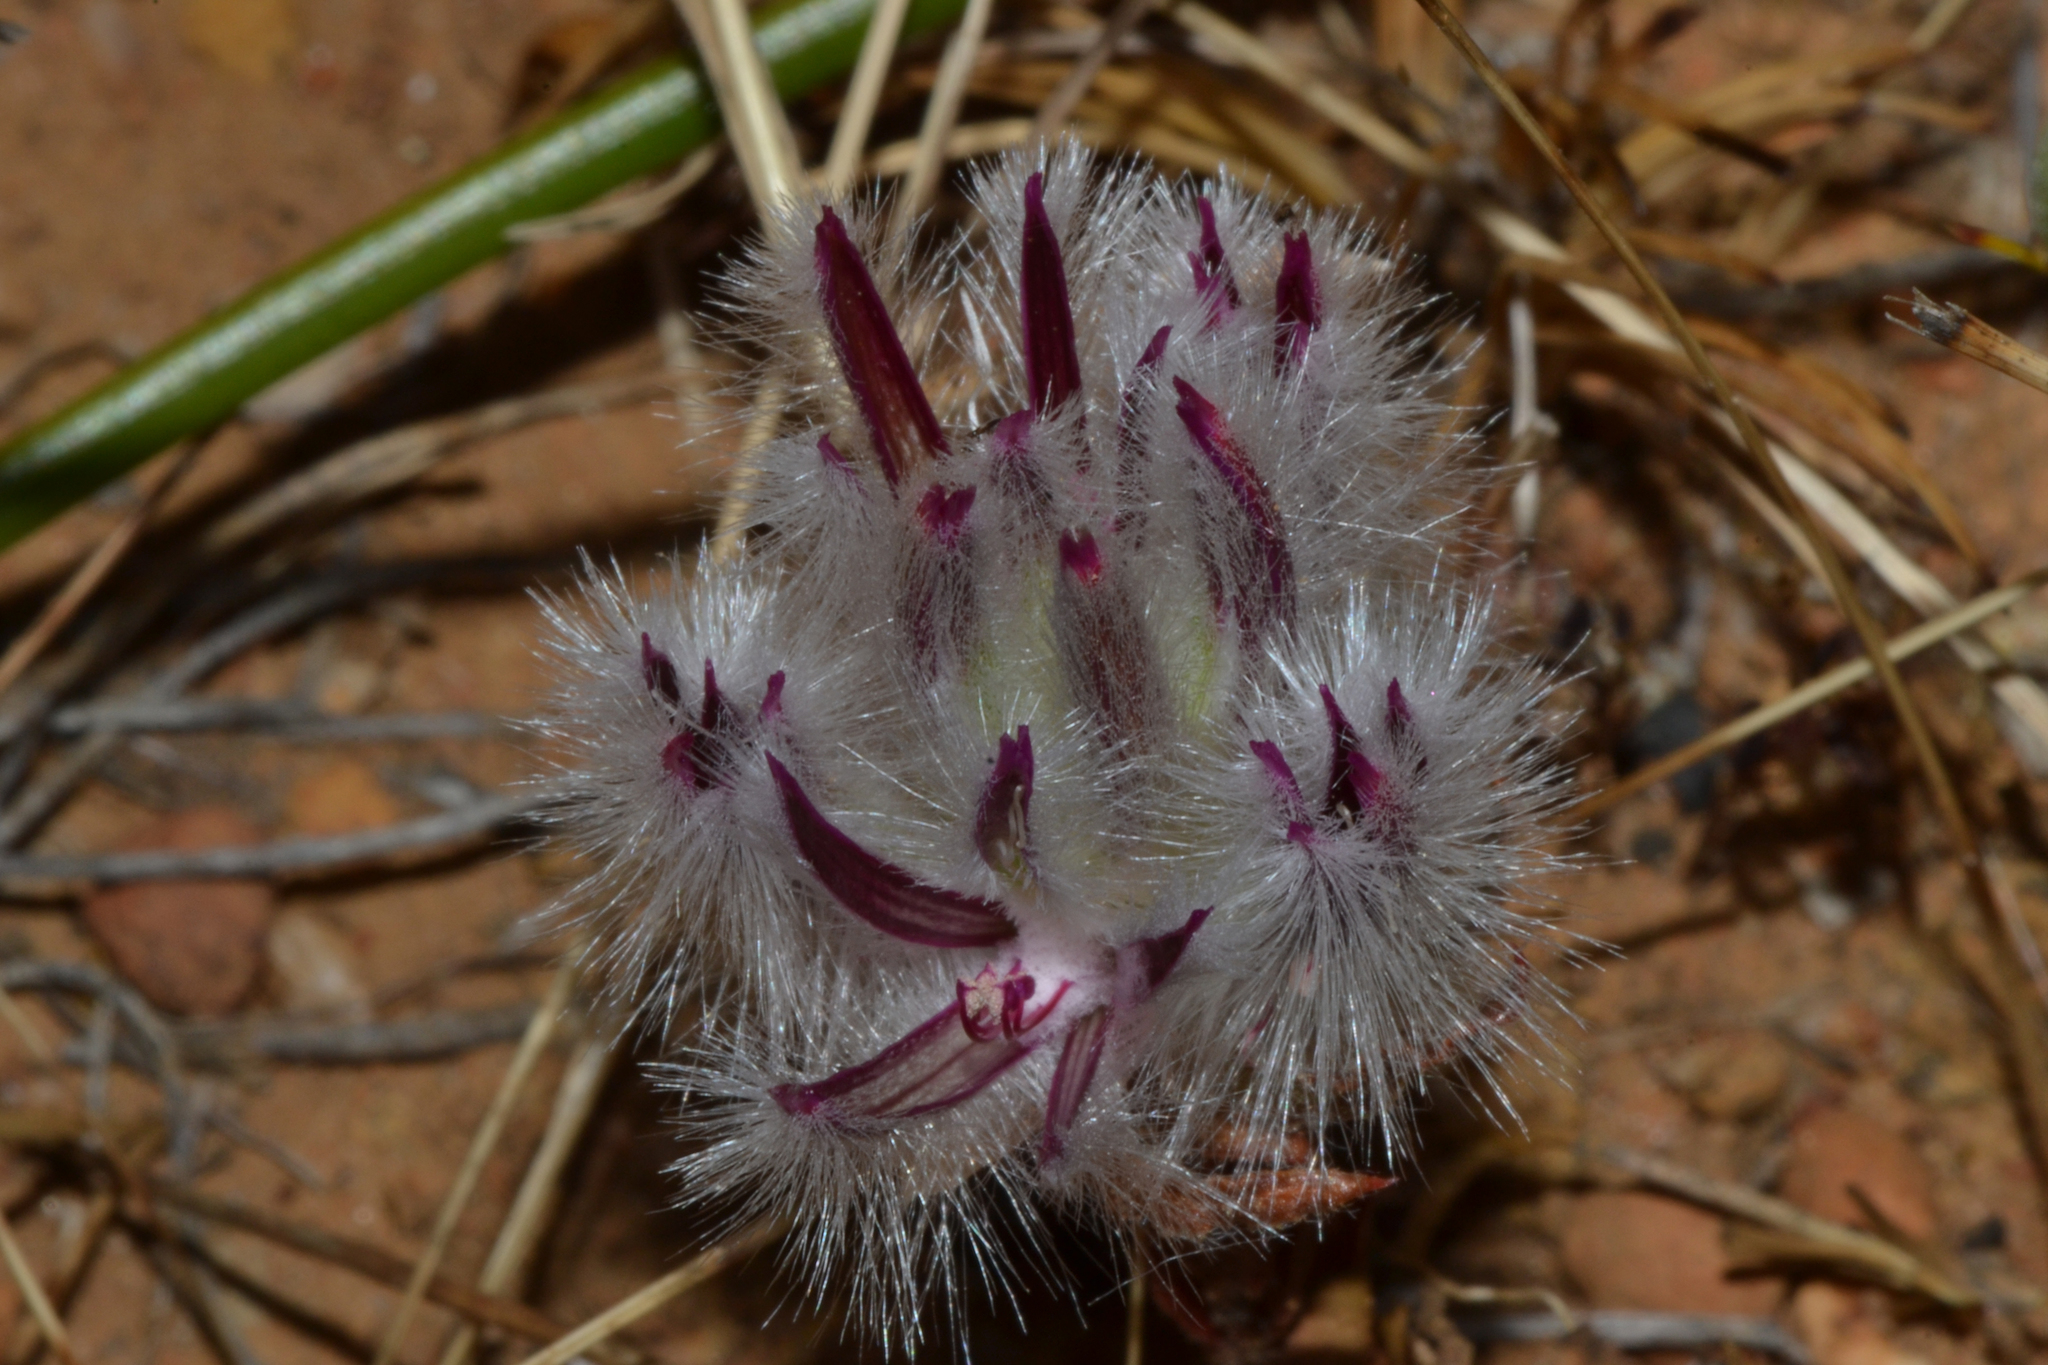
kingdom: Plantae
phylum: Tracheophyta
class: Magnoliopsida
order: Caryophyllales
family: Amaranthaceae
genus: Ptilotus
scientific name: Ptilotus declinatus
